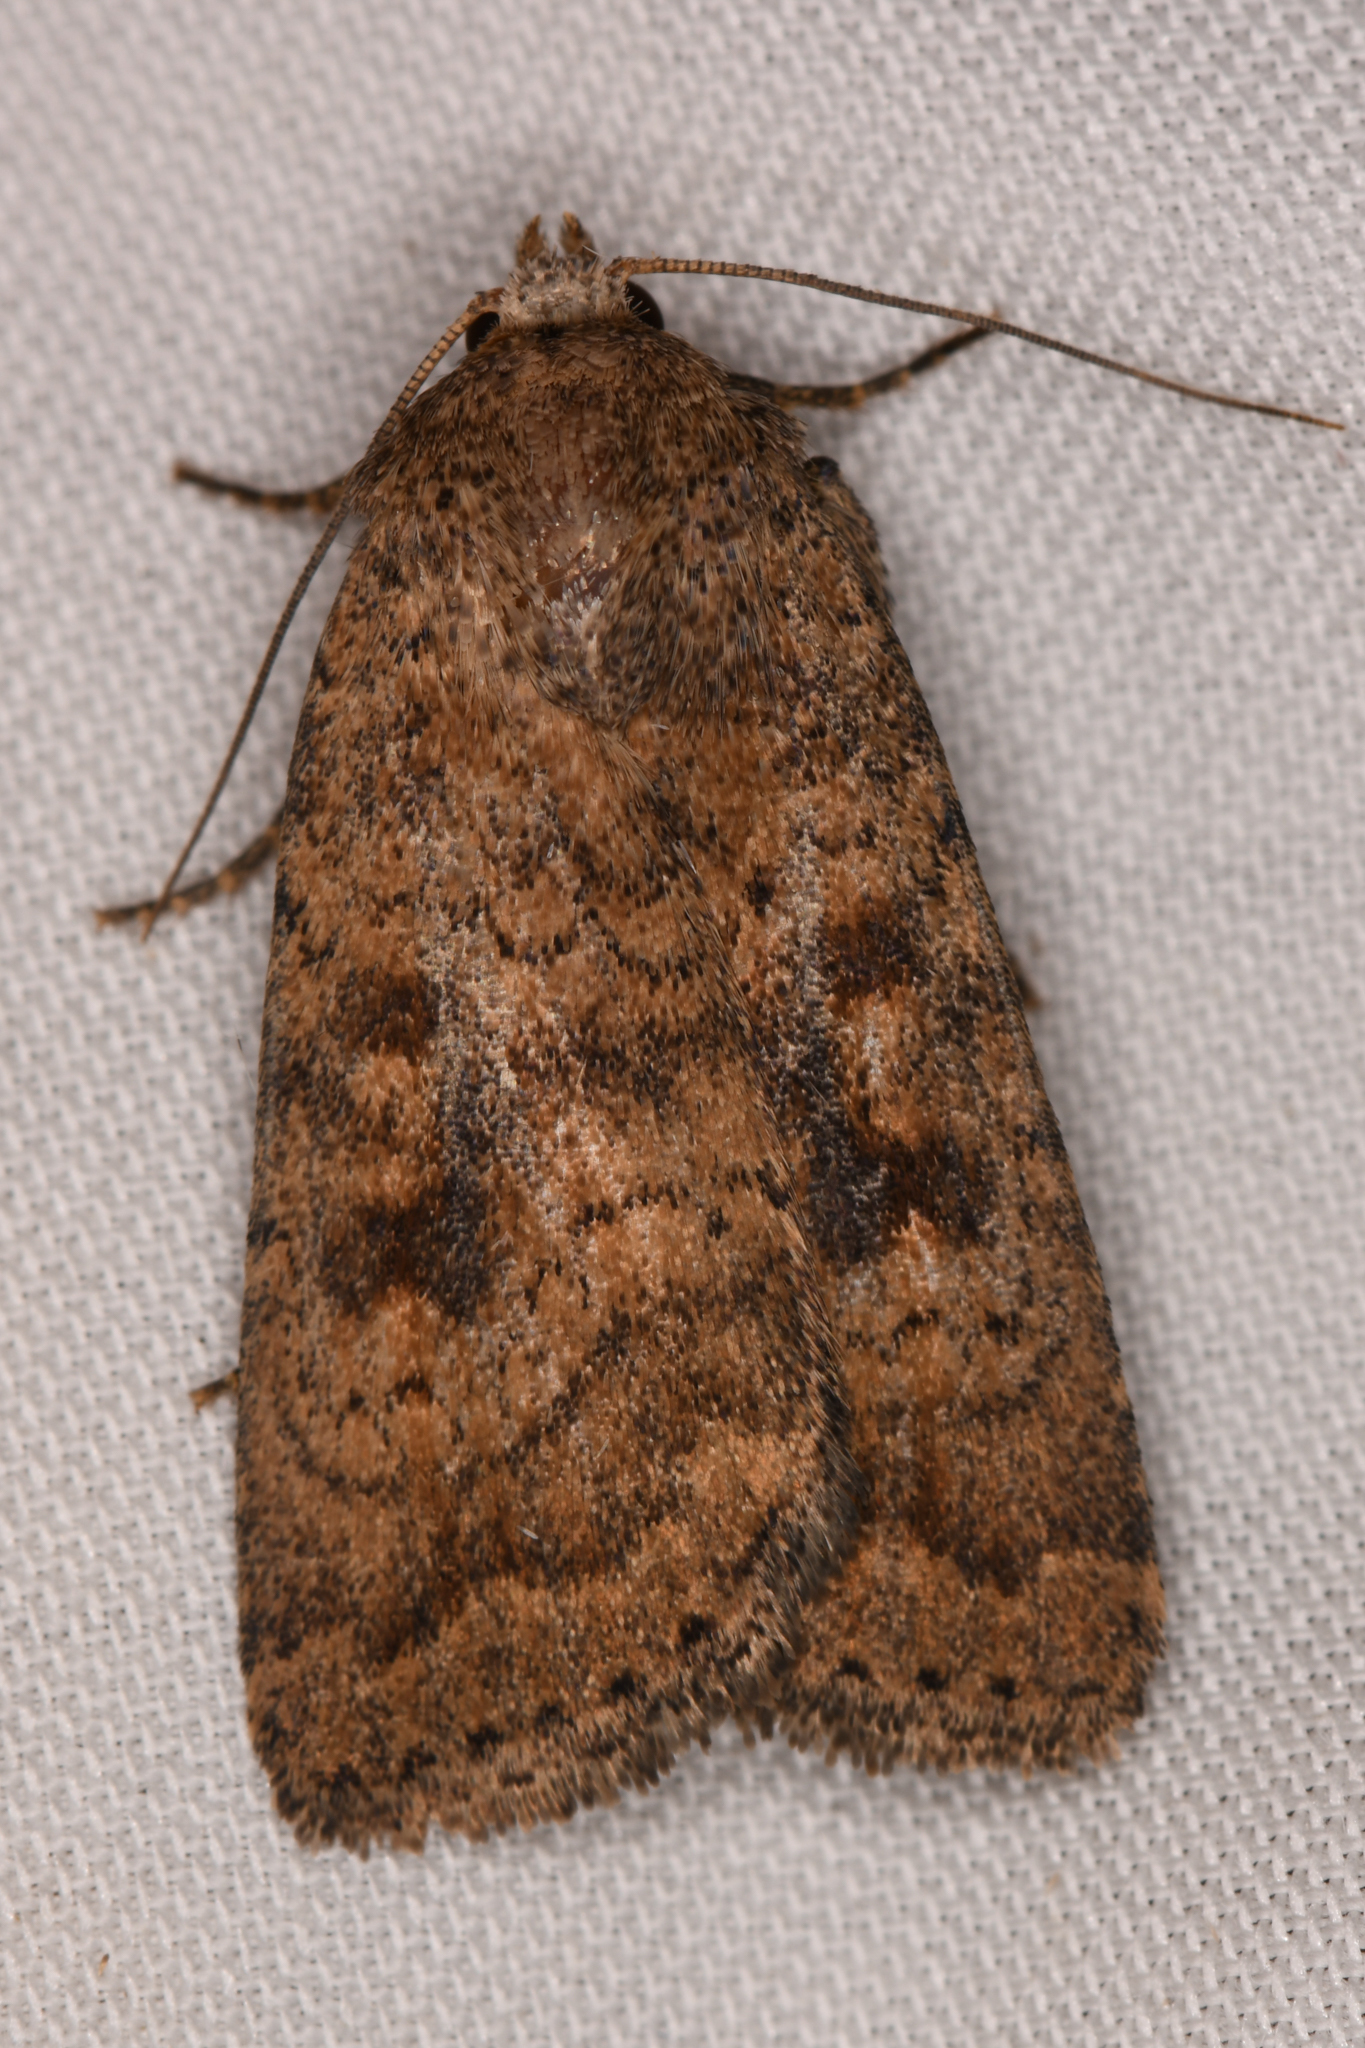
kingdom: Animalia
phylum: Arthropoda
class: Insecta
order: Lepidoptera
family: Noctuidae
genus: Caradrina
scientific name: Caradrina morpheus
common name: Mottled rustic
